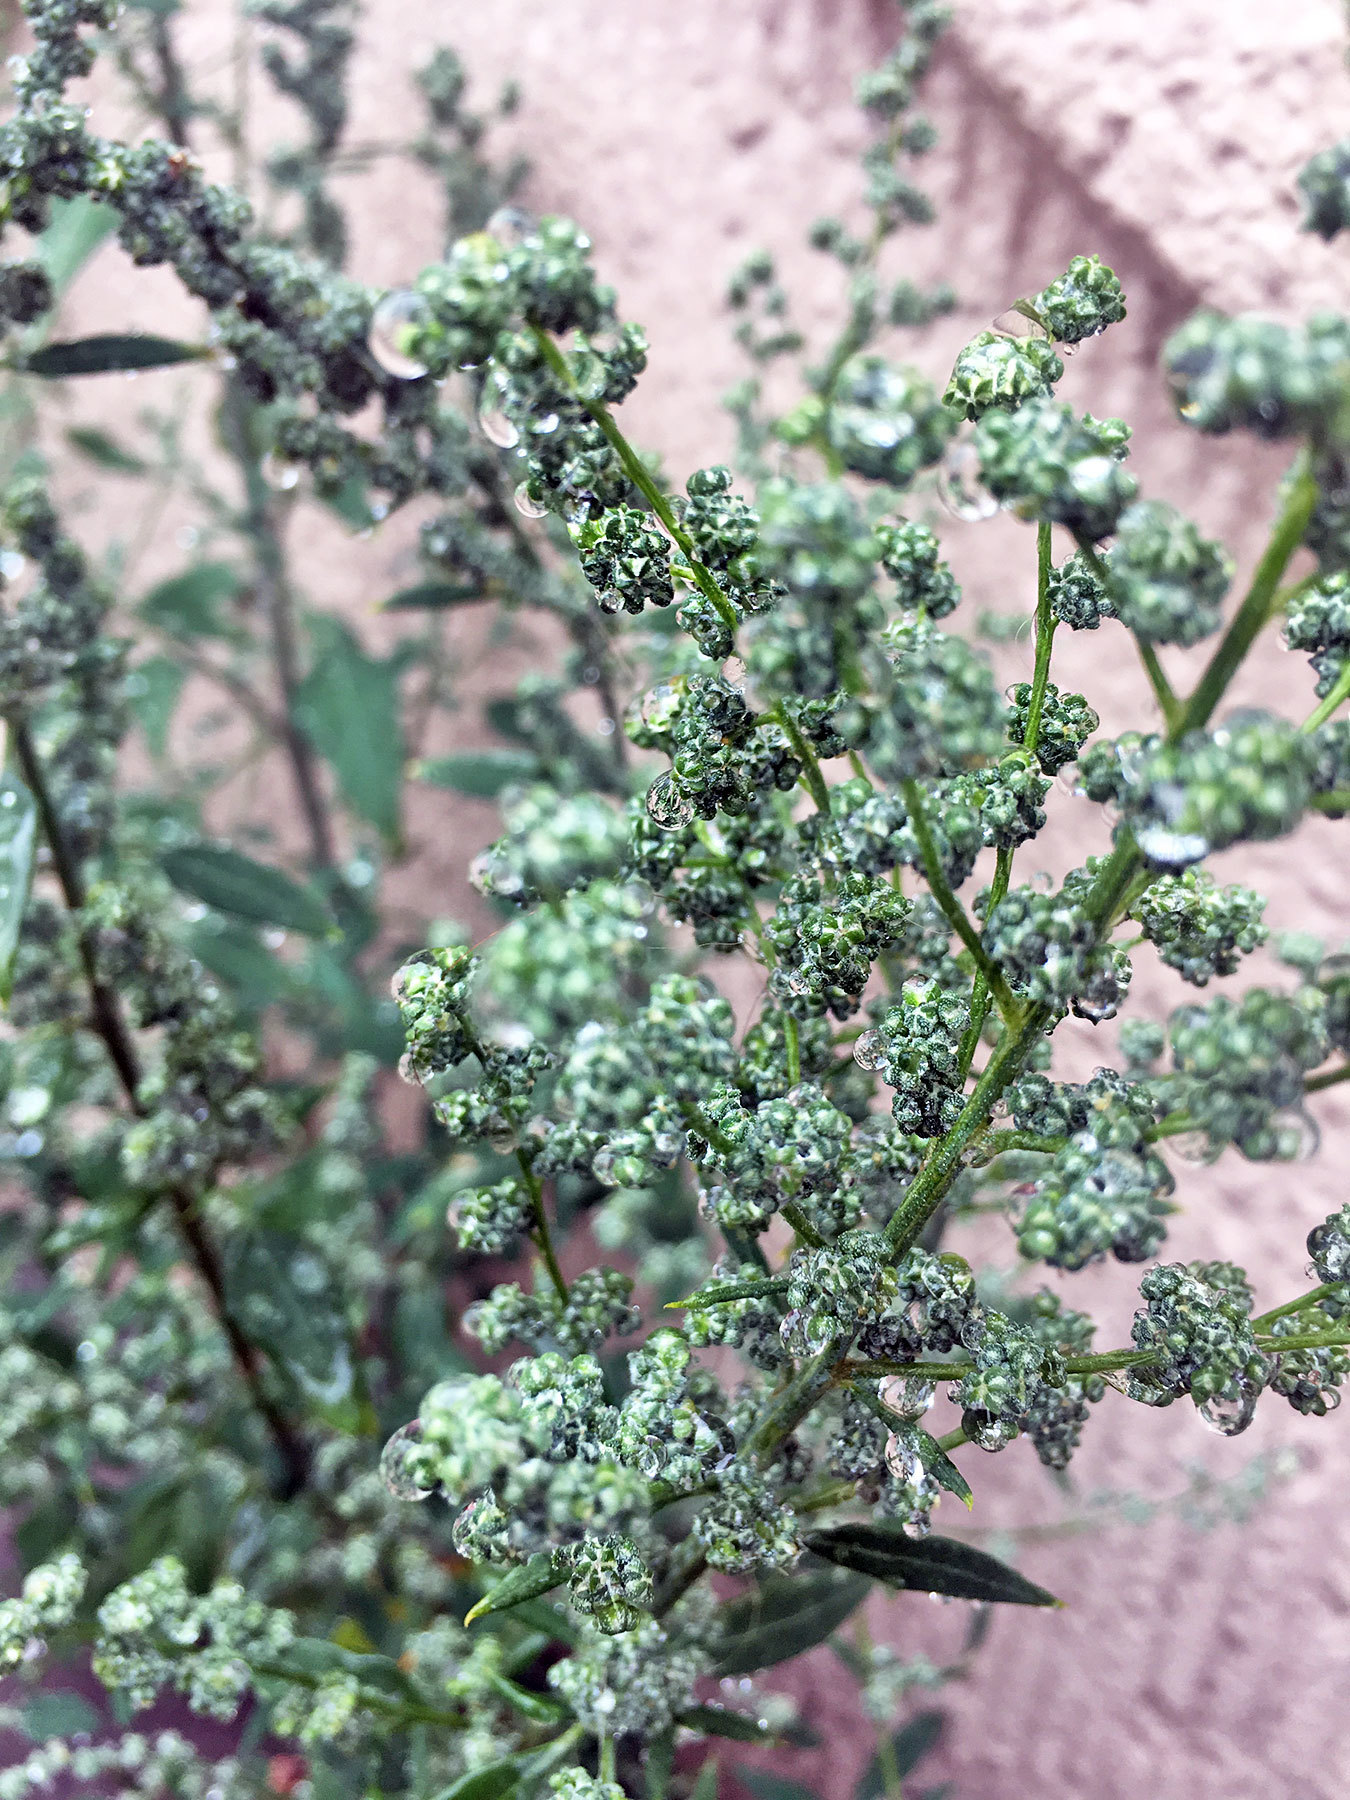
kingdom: Plantae
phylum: Tracheophyta
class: Magnoliopsida
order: Caryophyllales
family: Amaranthaceae
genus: Chenopodium
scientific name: Chenopodium album
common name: Fat-hen
